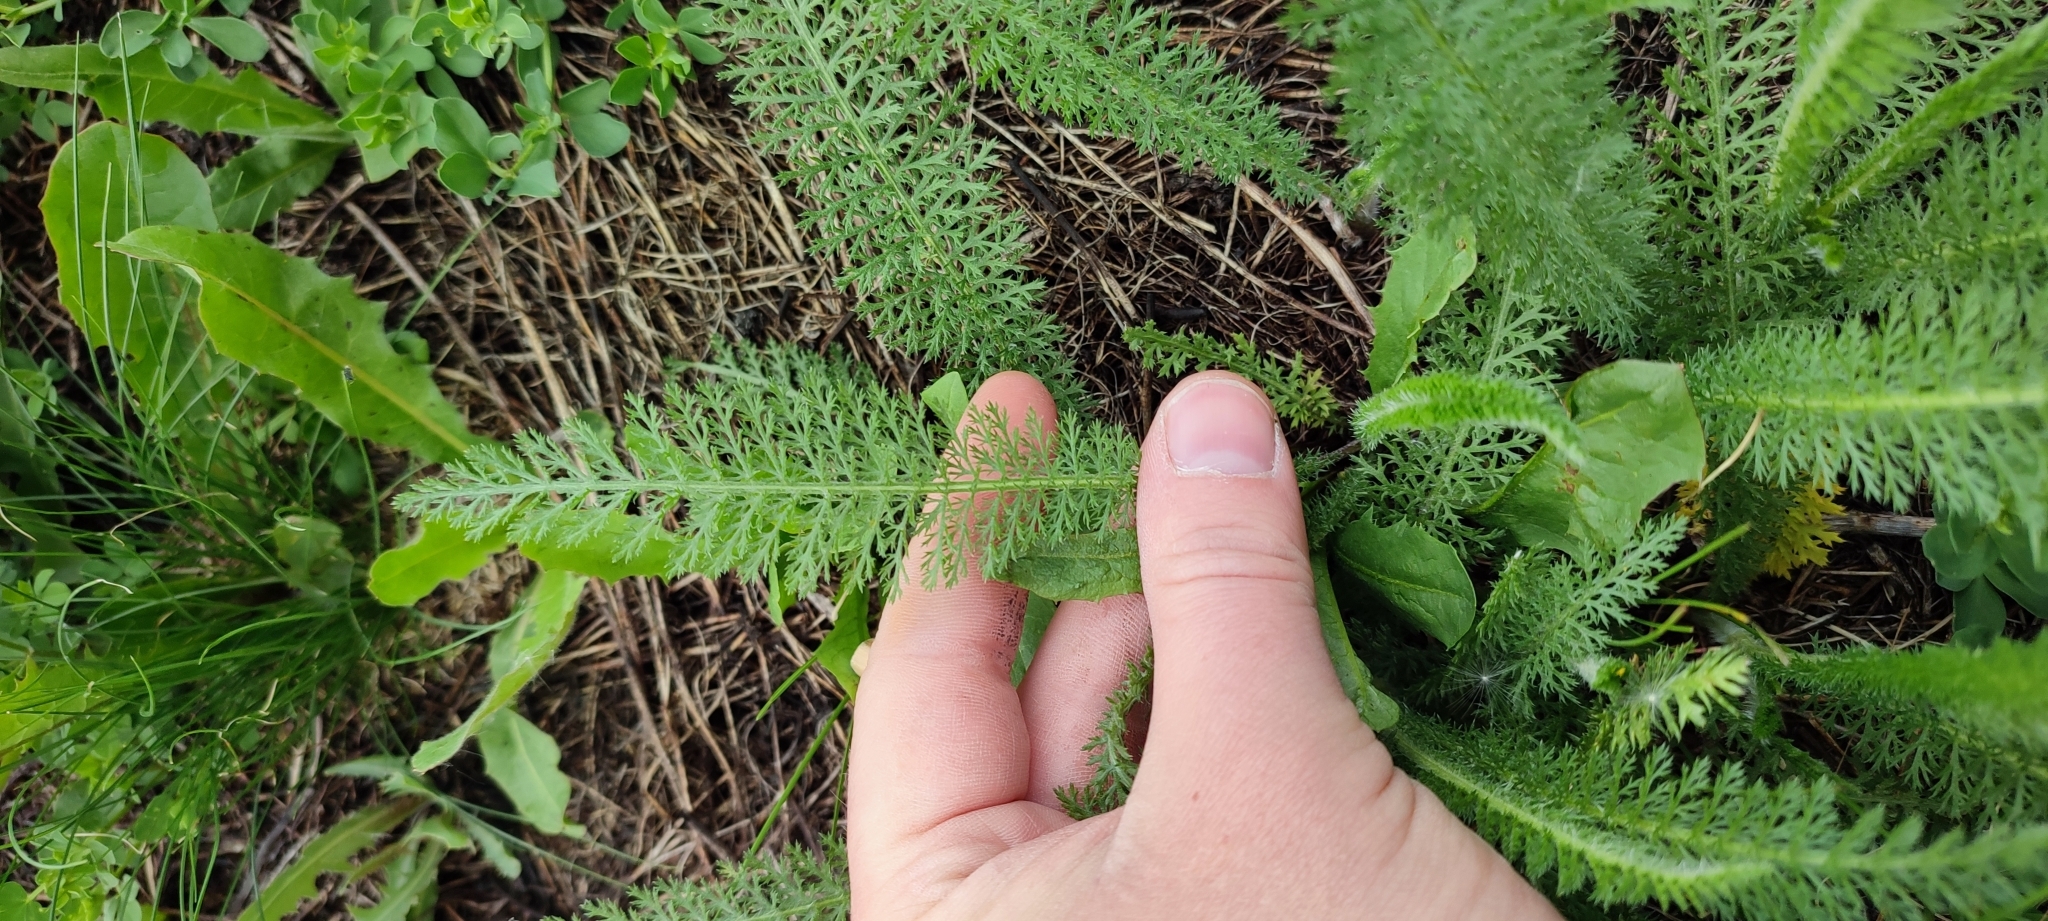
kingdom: Plantae
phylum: Tracheophyta
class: Magnoliopsida
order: Asterales
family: Asteraceae
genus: Achillea
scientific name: Achillea asiatica
